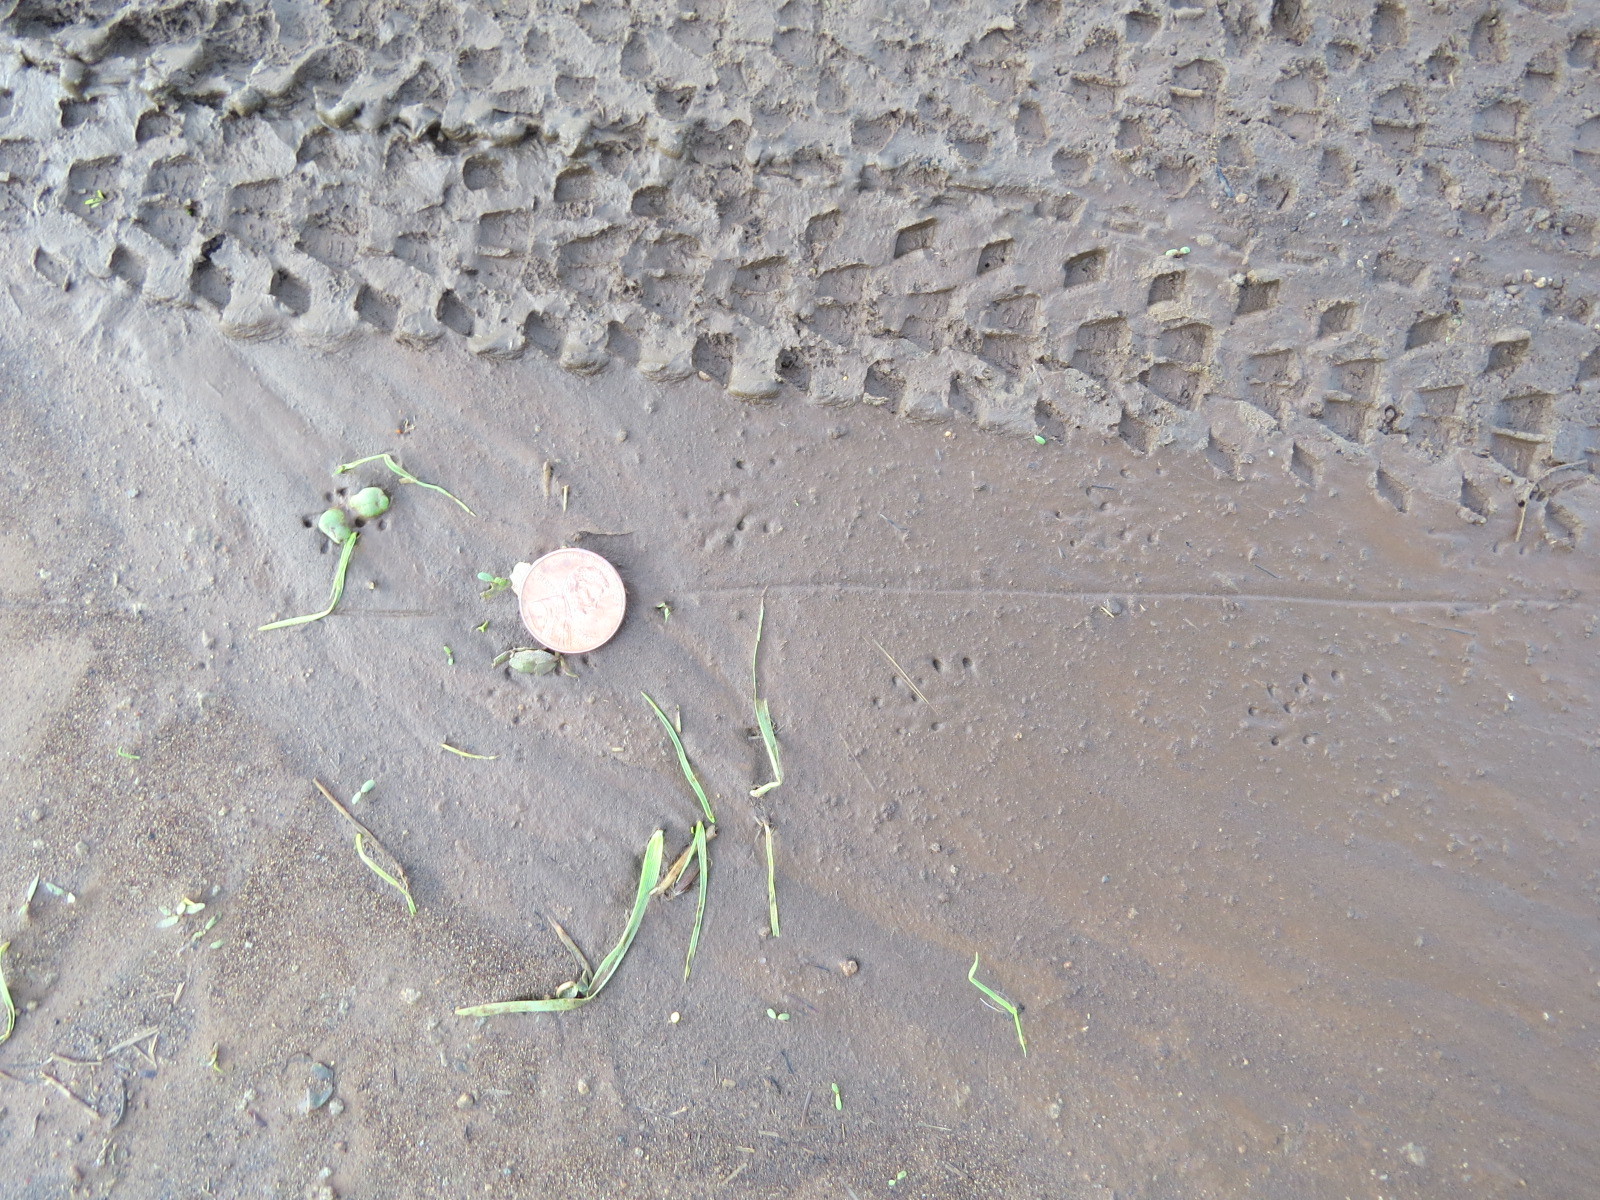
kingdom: Animalia
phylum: Chordata
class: Amphibia
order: Caudata
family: Salamandridae
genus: Taricha
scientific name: Taricha
